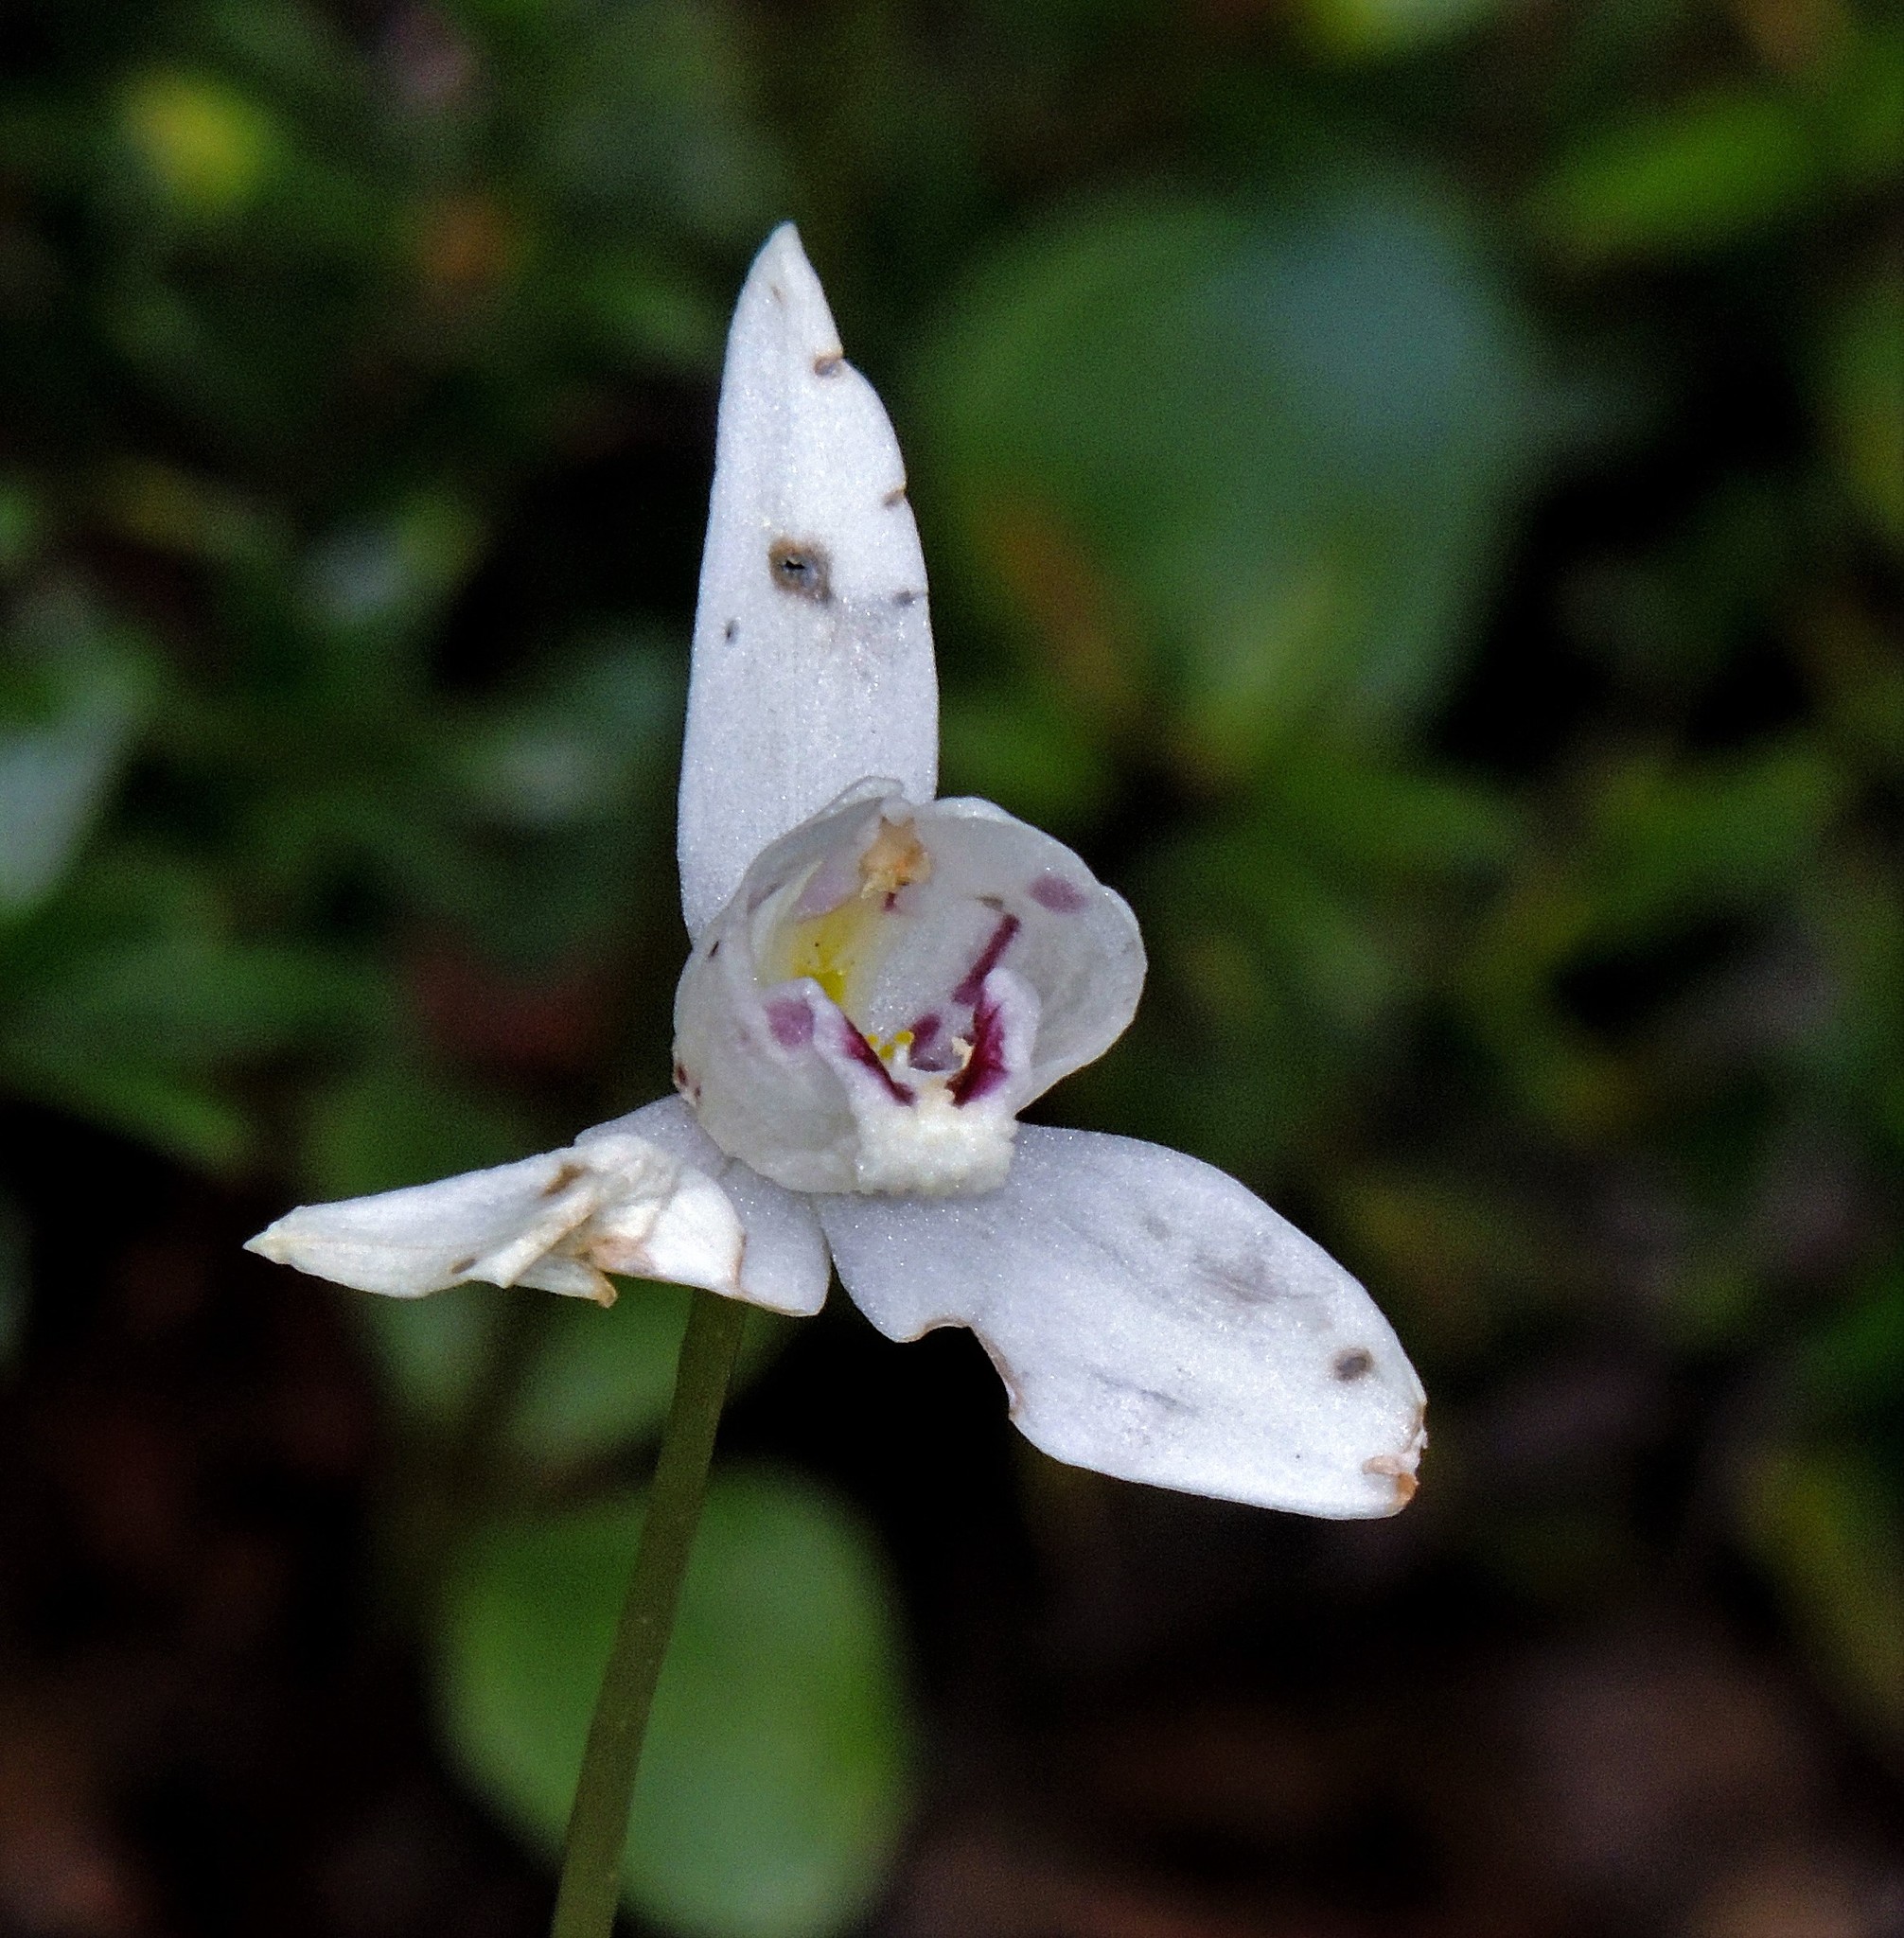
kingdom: Plantae
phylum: Tracheophyta
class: Liliopsida
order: Asparagales
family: Orchidaceae
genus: Codonorchis
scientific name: Codonorchis lessonii
